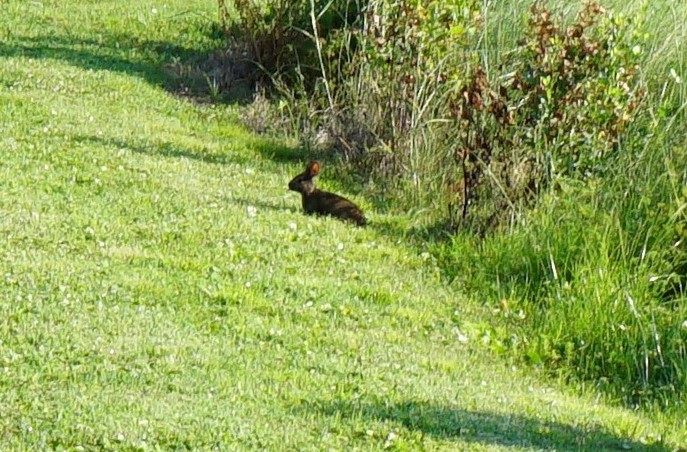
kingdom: Animalia
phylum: Chordata
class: Mammalia
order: Lagomorpha
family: Leporidae
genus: Sylvilagus
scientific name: Sylvilagus palustris
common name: Marsh rabbit
